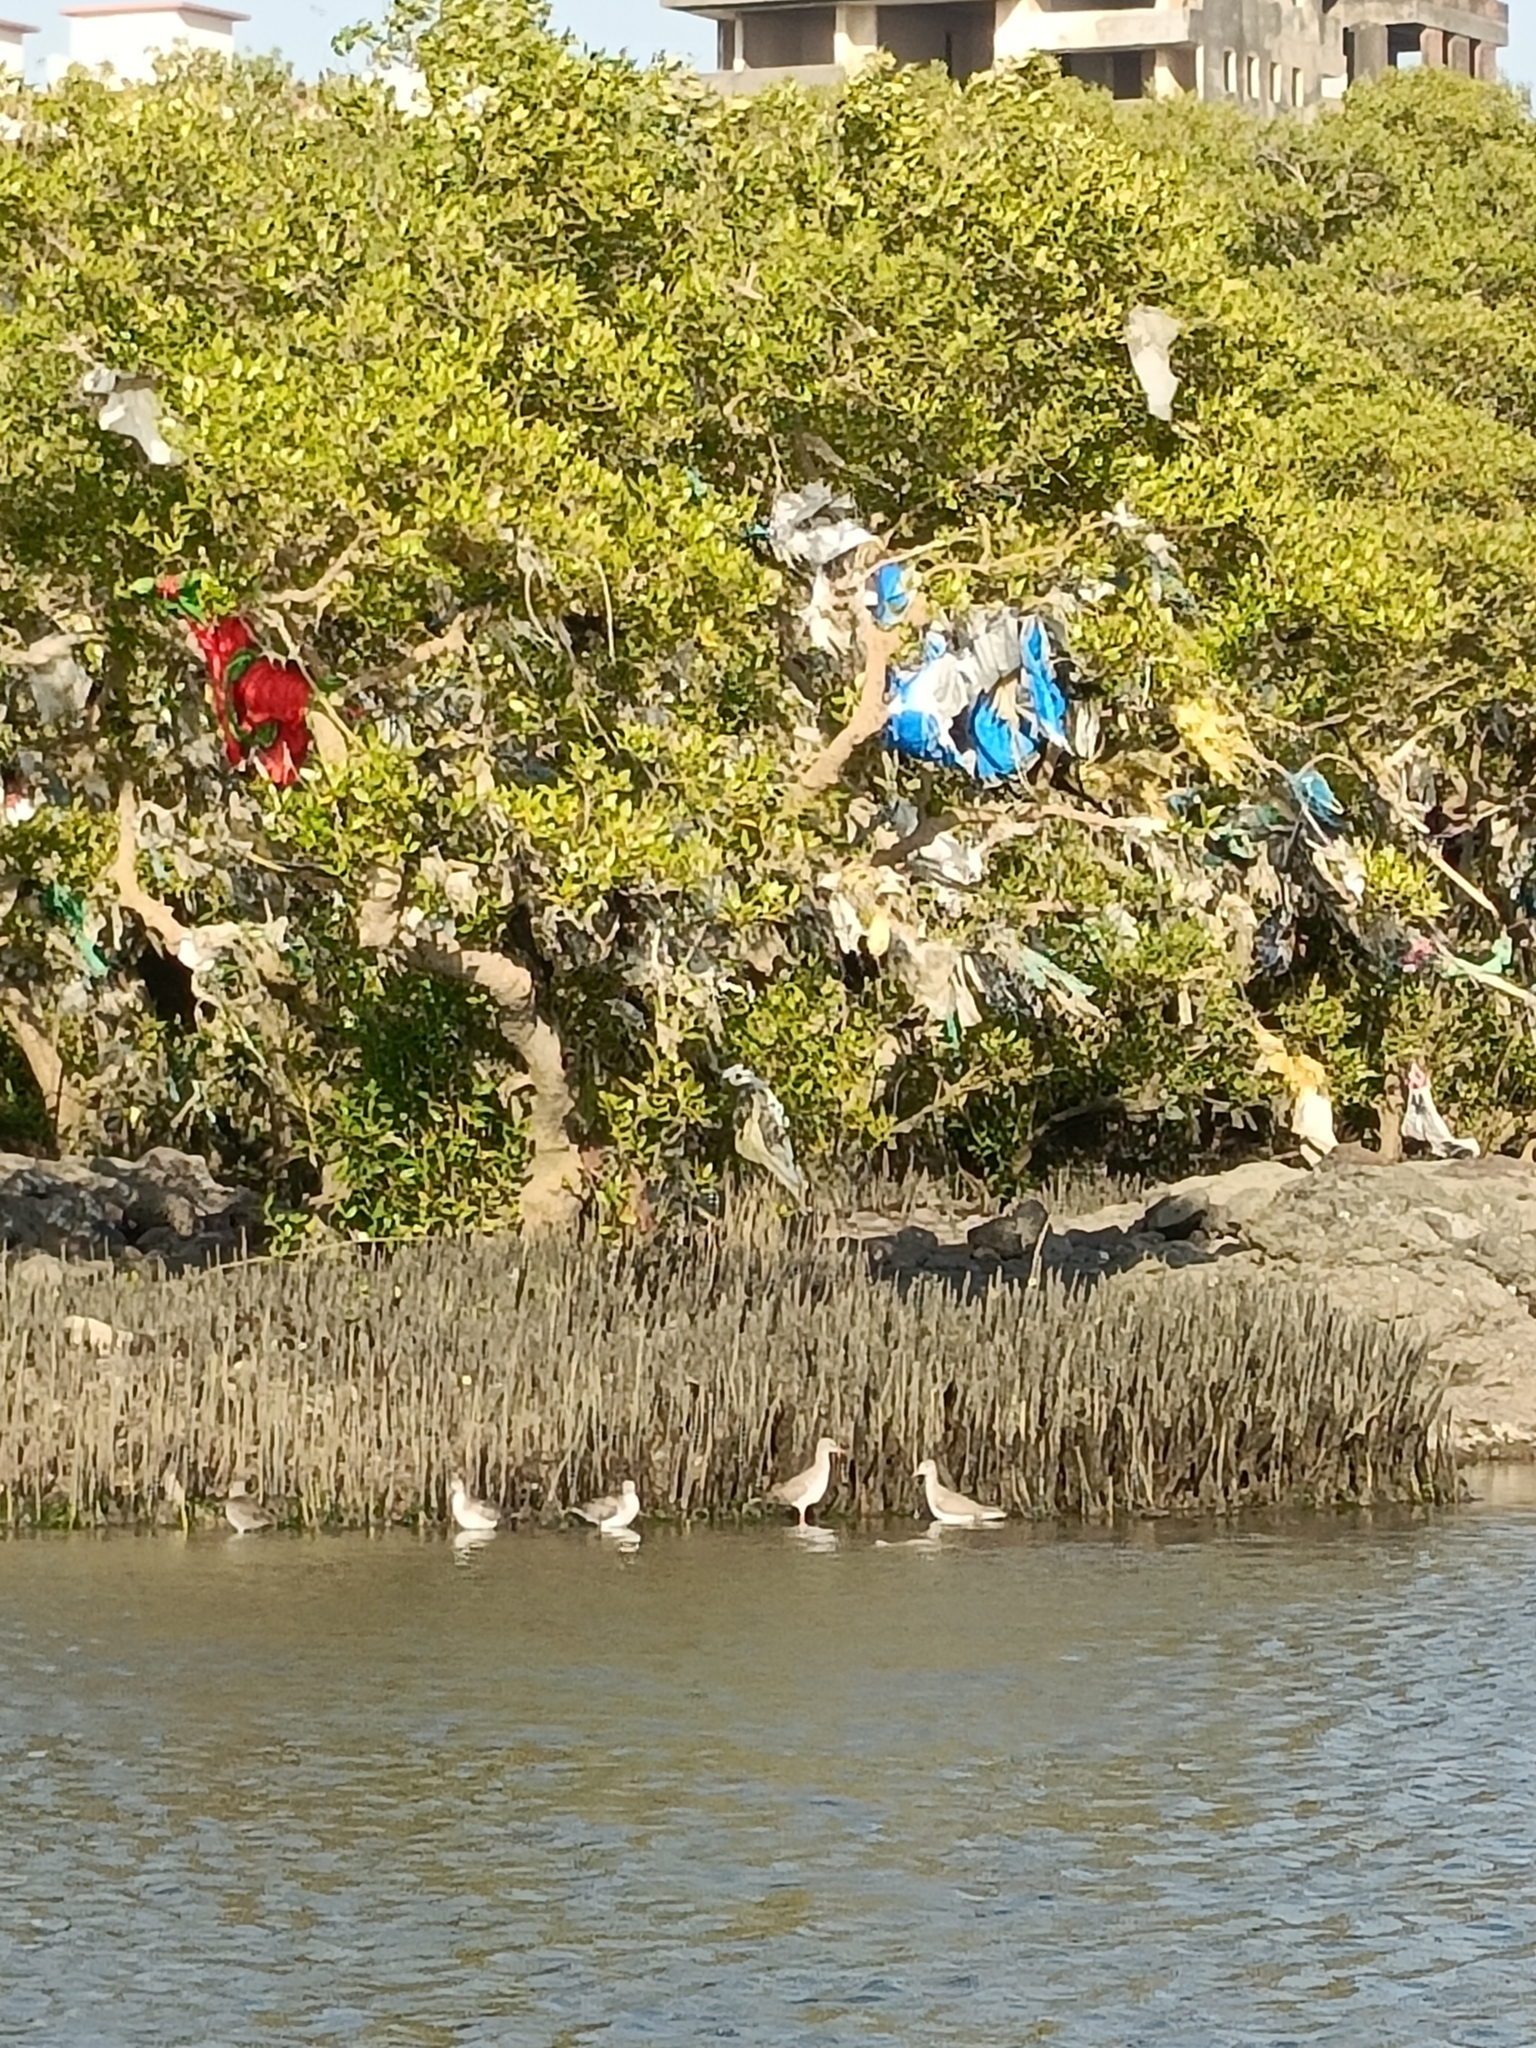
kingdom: Animalia
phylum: Chordata
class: Aves
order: Charadriiformes
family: Recurvirostridae
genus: Himantopus
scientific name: Himantopus himantopus
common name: Black-winged stilt
